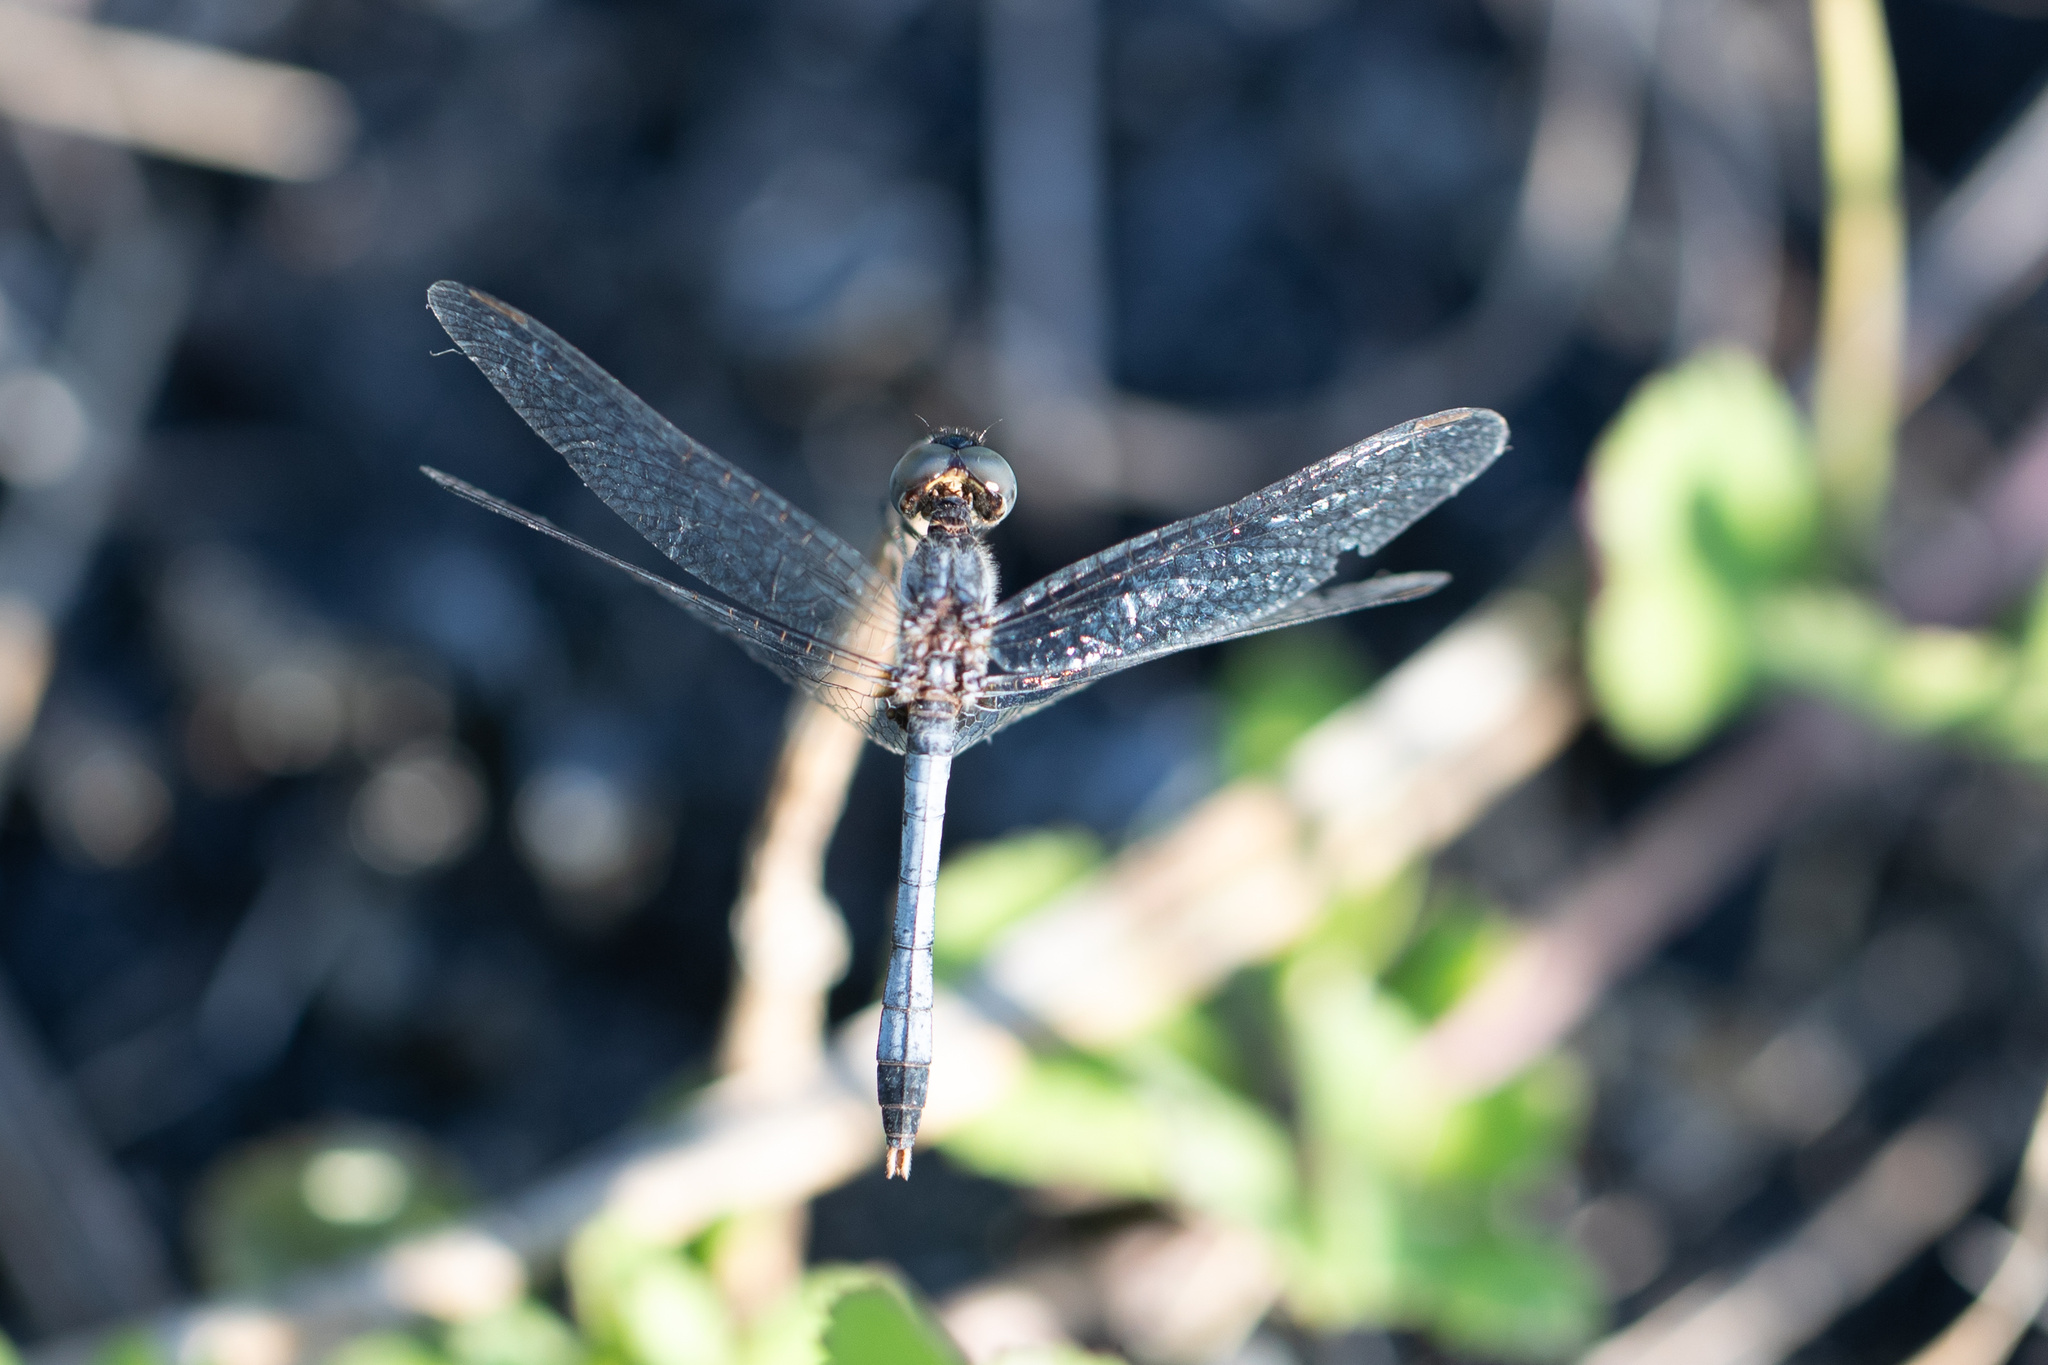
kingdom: Animalia
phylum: Arthropoda
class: Insecta
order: Odonata
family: Libellulidae
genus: Erythrodiplax
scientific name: Erythrodiplax minuscula
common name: Little blue dragonlet
